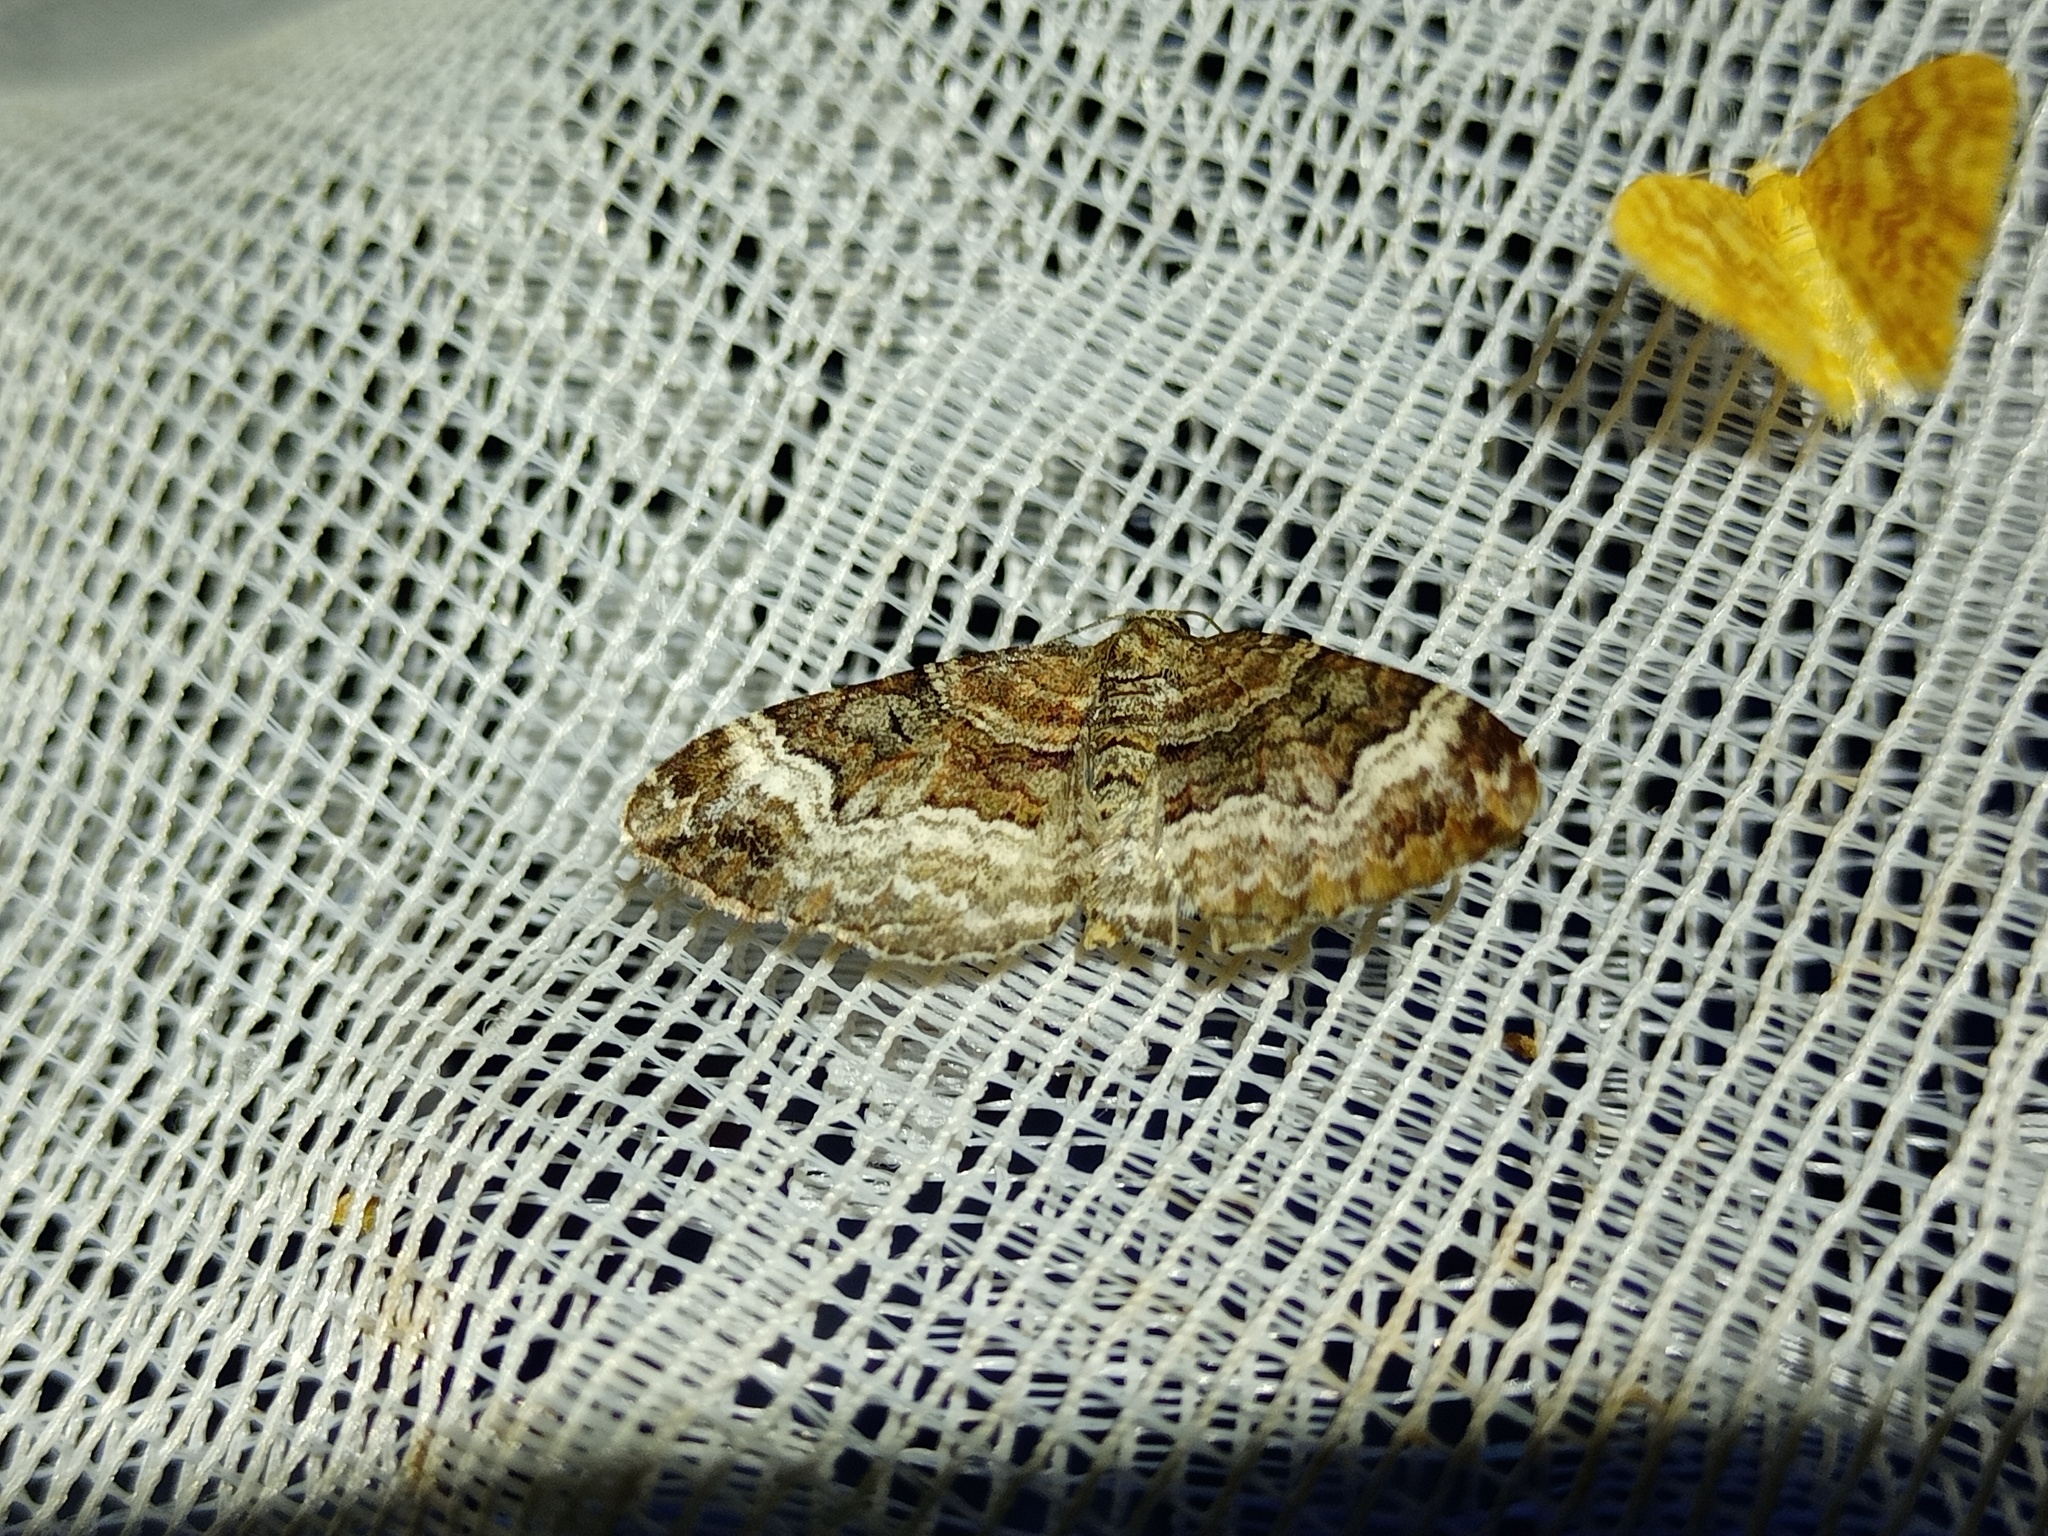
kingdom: Animalia
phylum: Arthropoda
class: Insecta
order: Lepidoptera
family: Geometridae
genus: Xanthorhoe
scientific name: Xanthorhoe biriviata
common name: Balsam carpet
